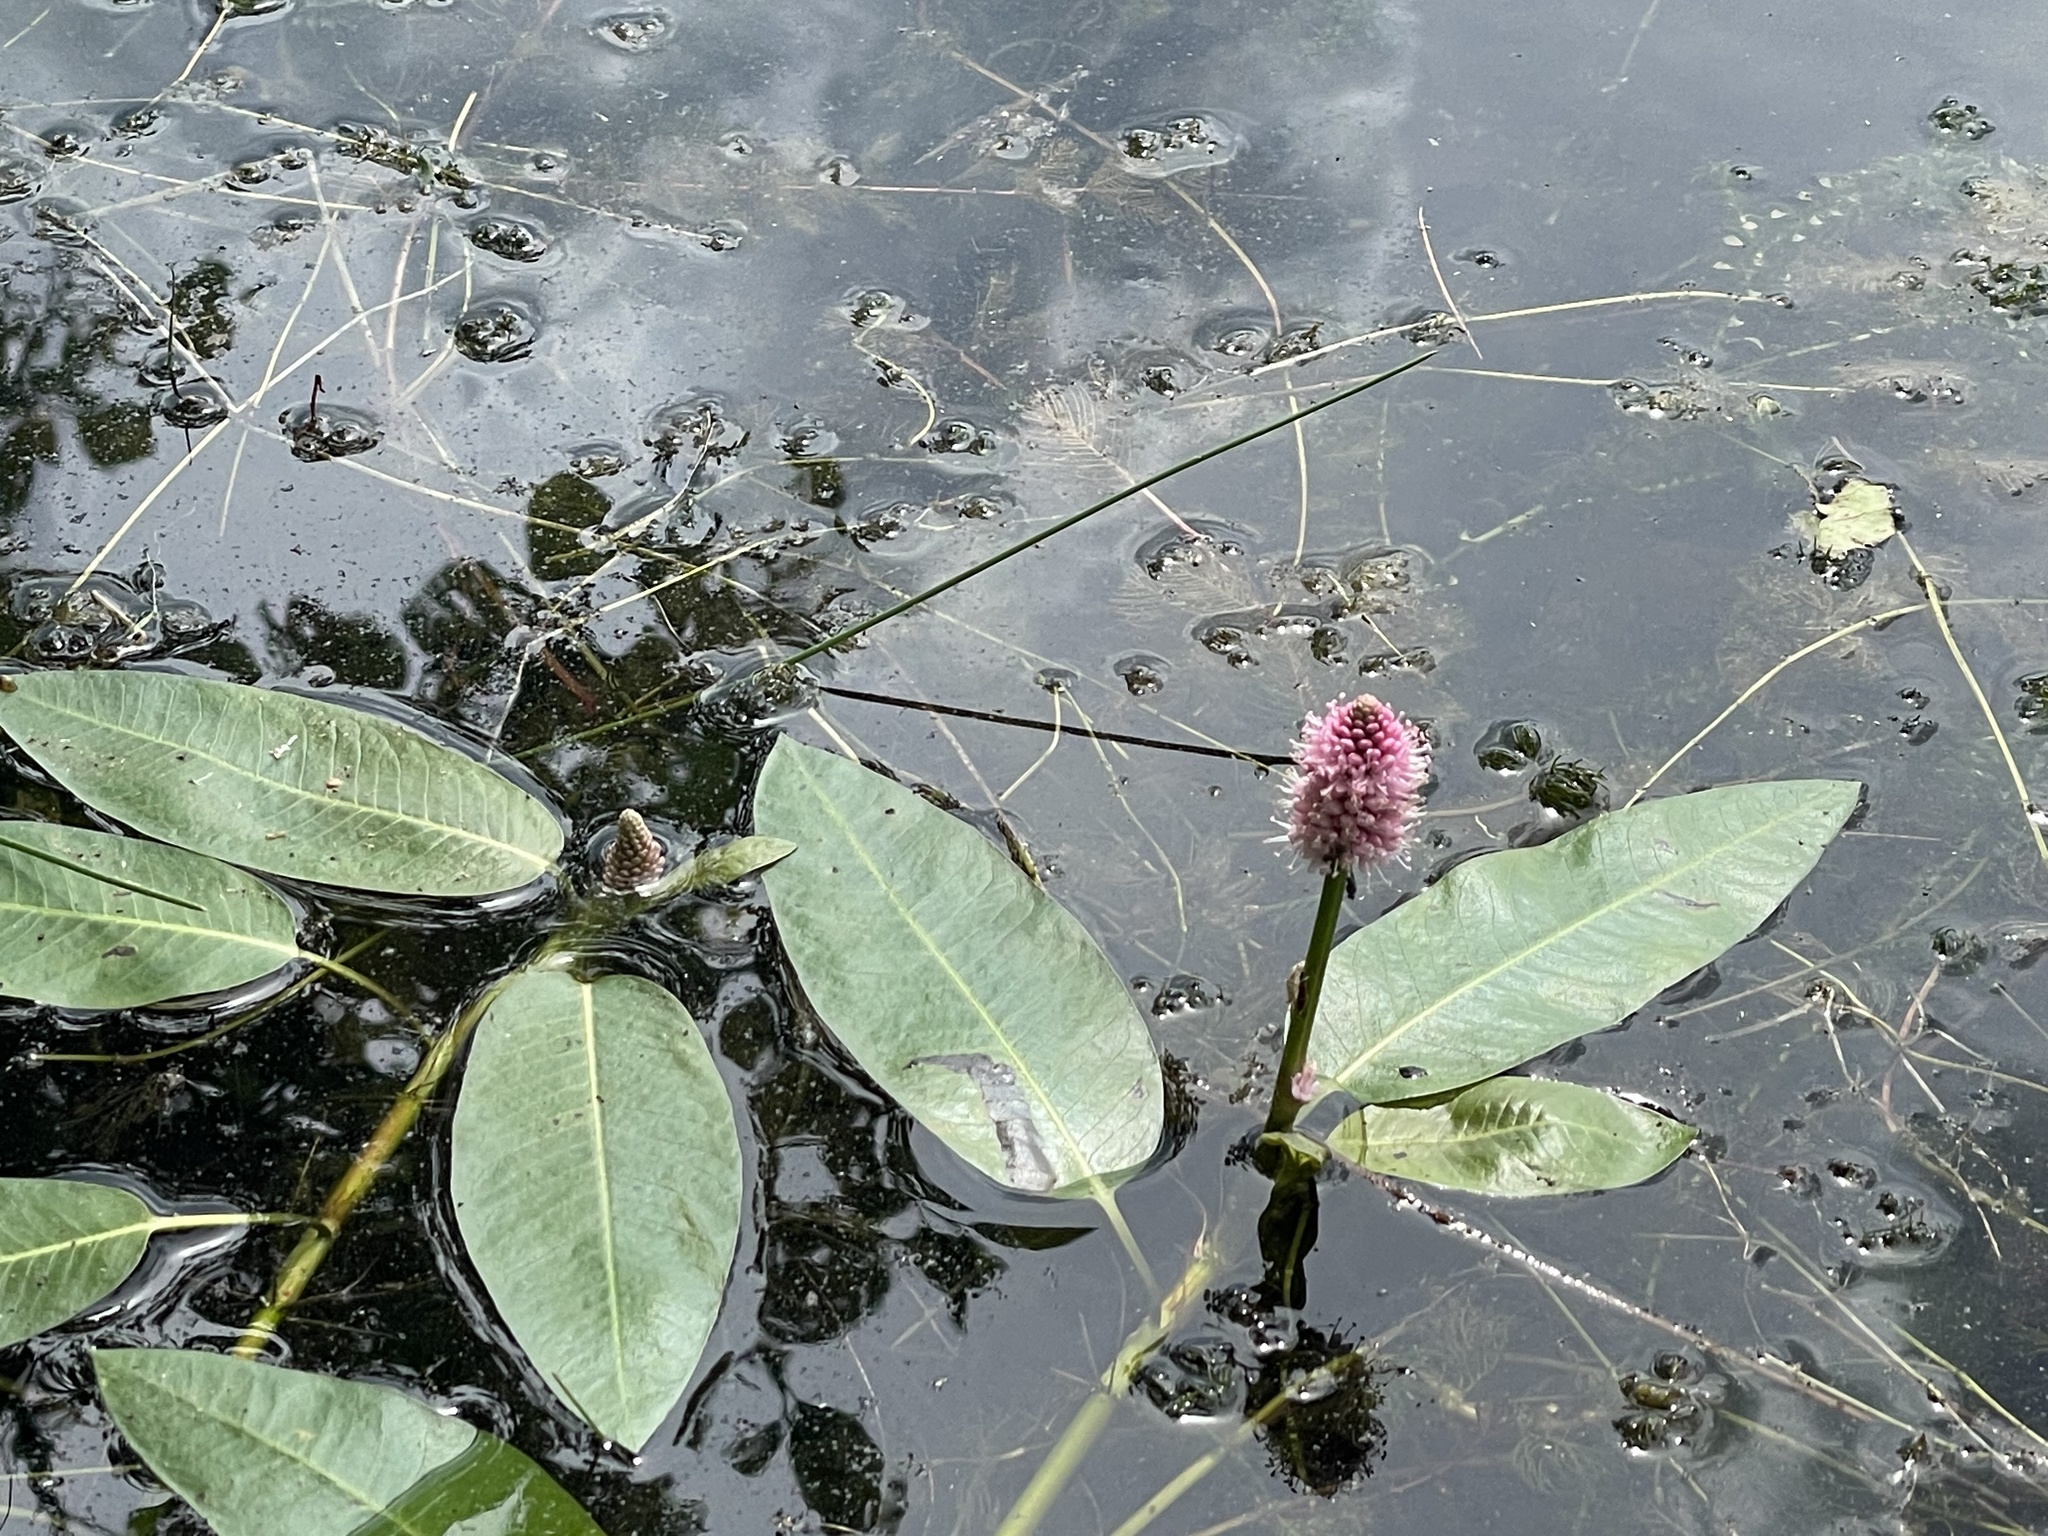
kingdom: Plantae
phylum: Tracheophyta
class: Magnoliopsida
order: Caryophyllales
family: Polygonaceae
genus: Persicaria
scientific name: Persicaria amphibia
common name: Amphibious bistort
